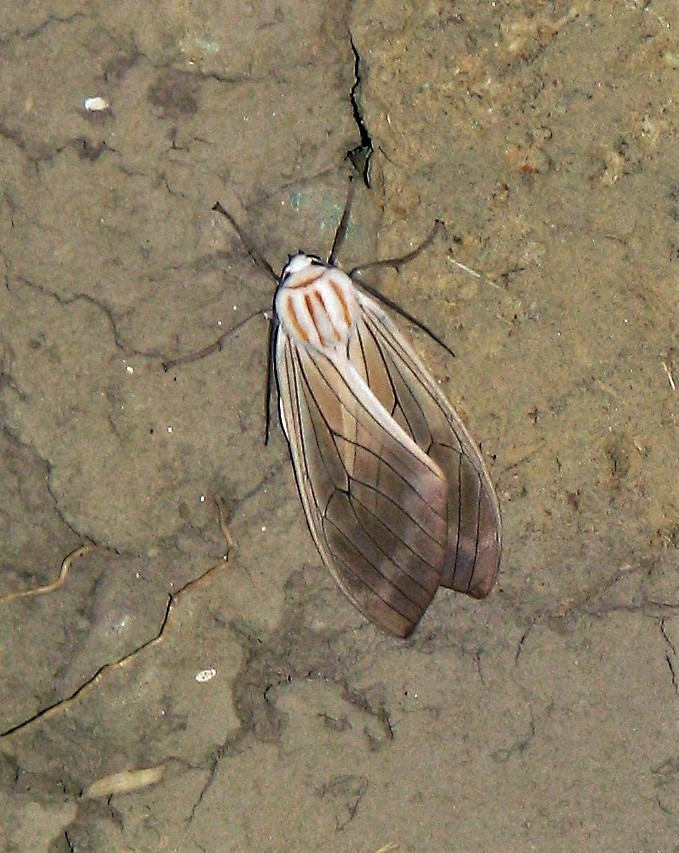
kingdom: Animalia
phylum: Arthropoda
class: Insecta
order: Lepidoptera
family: Erebidae
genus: Amastus
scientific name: Amastus aconia
